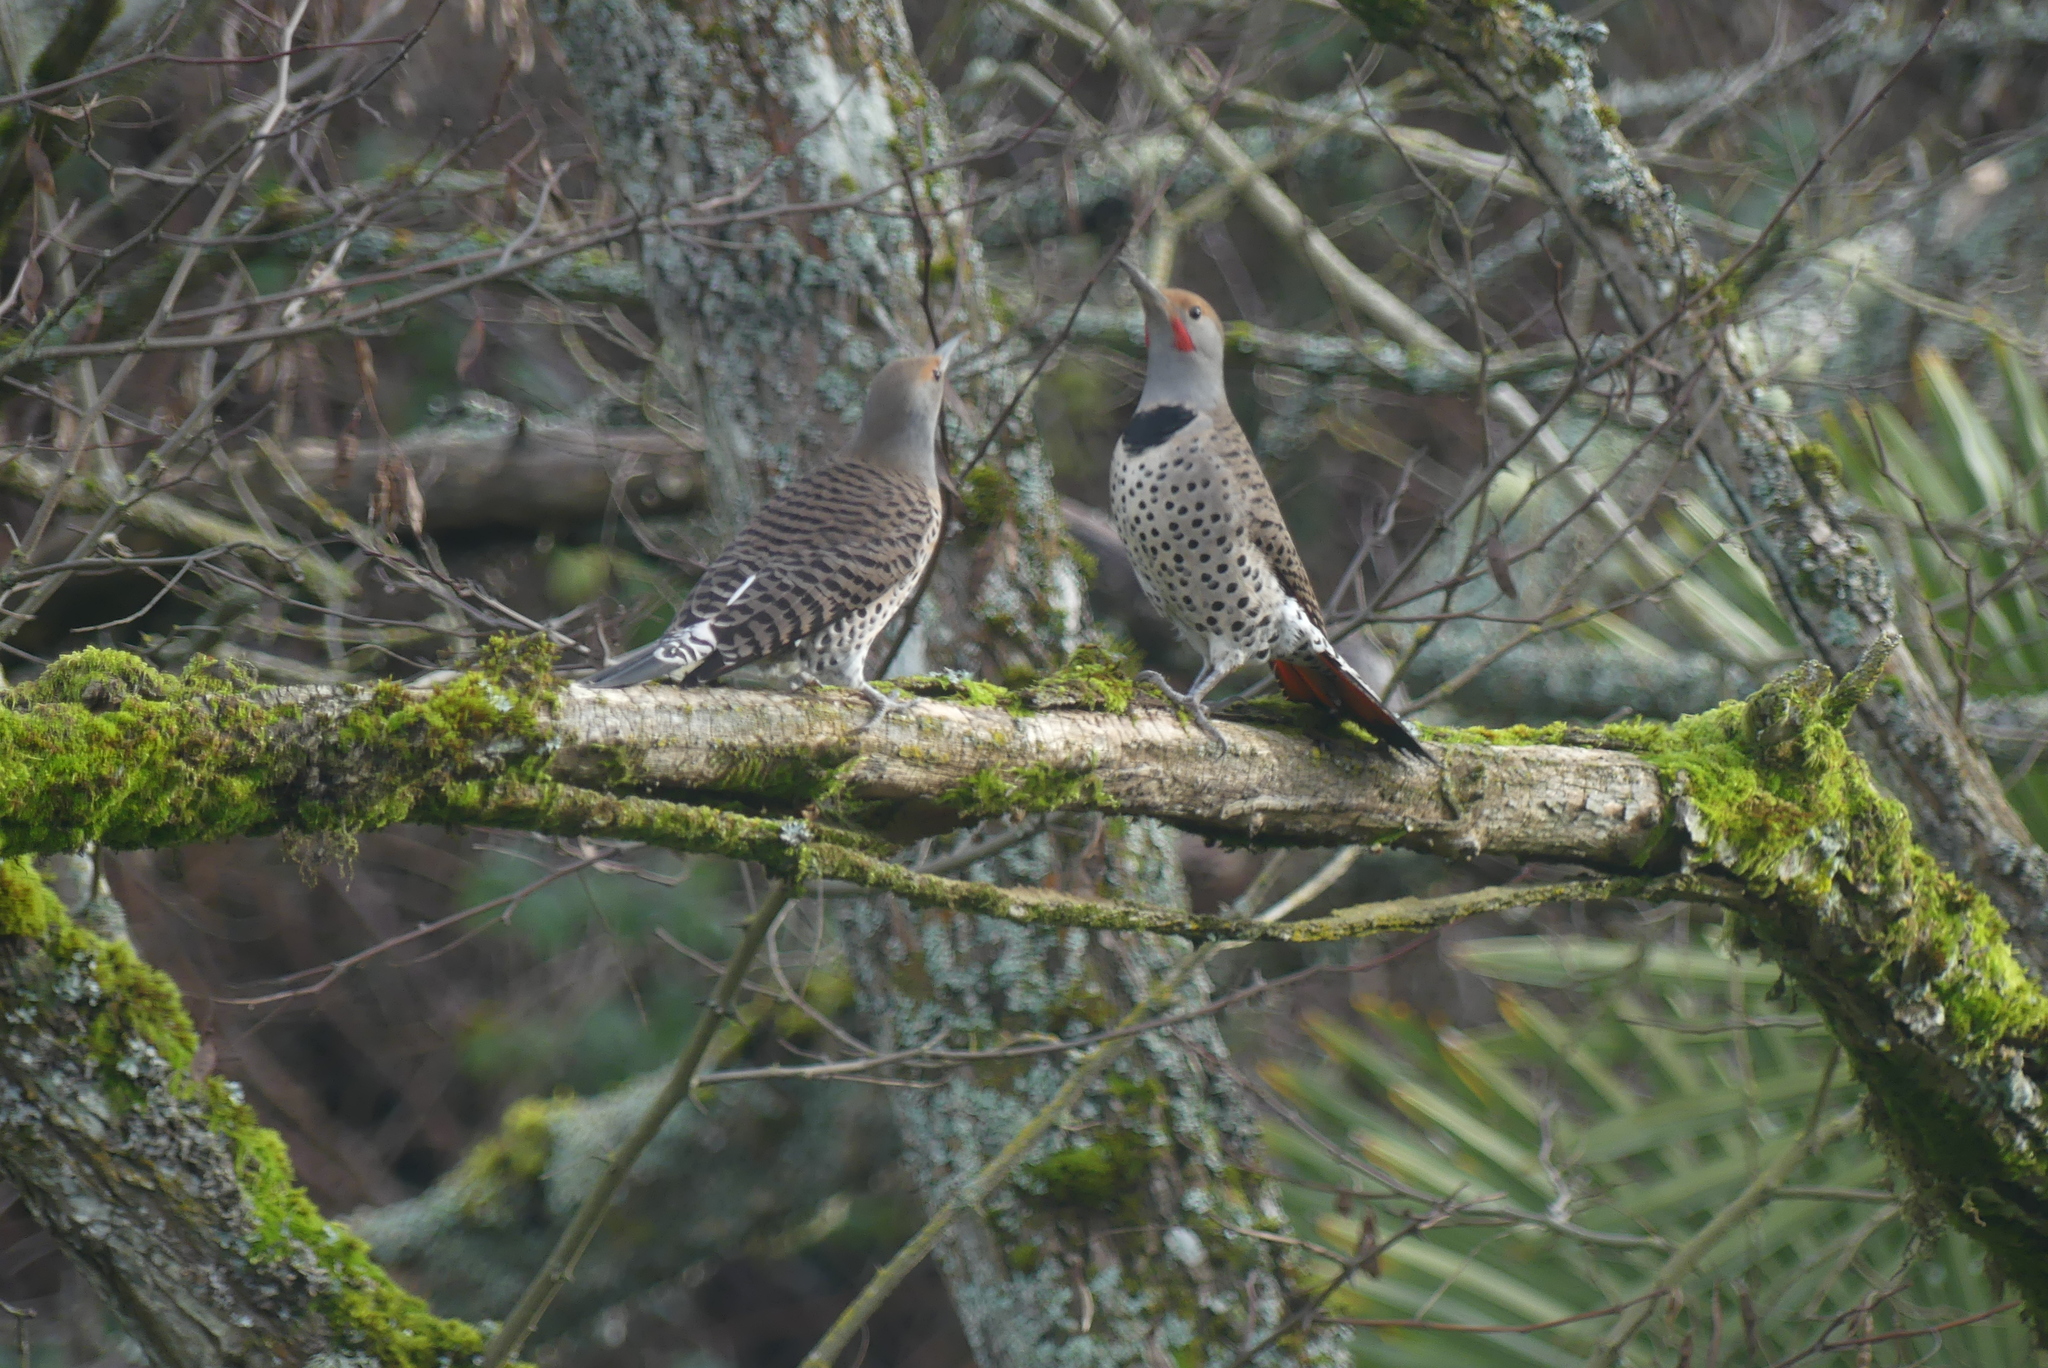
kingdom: Animalia
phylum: Chordata
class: Aves
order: Piciformes
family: Picidae
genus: Colaptes
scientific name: Colaptes auratus
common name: Northern flicker
